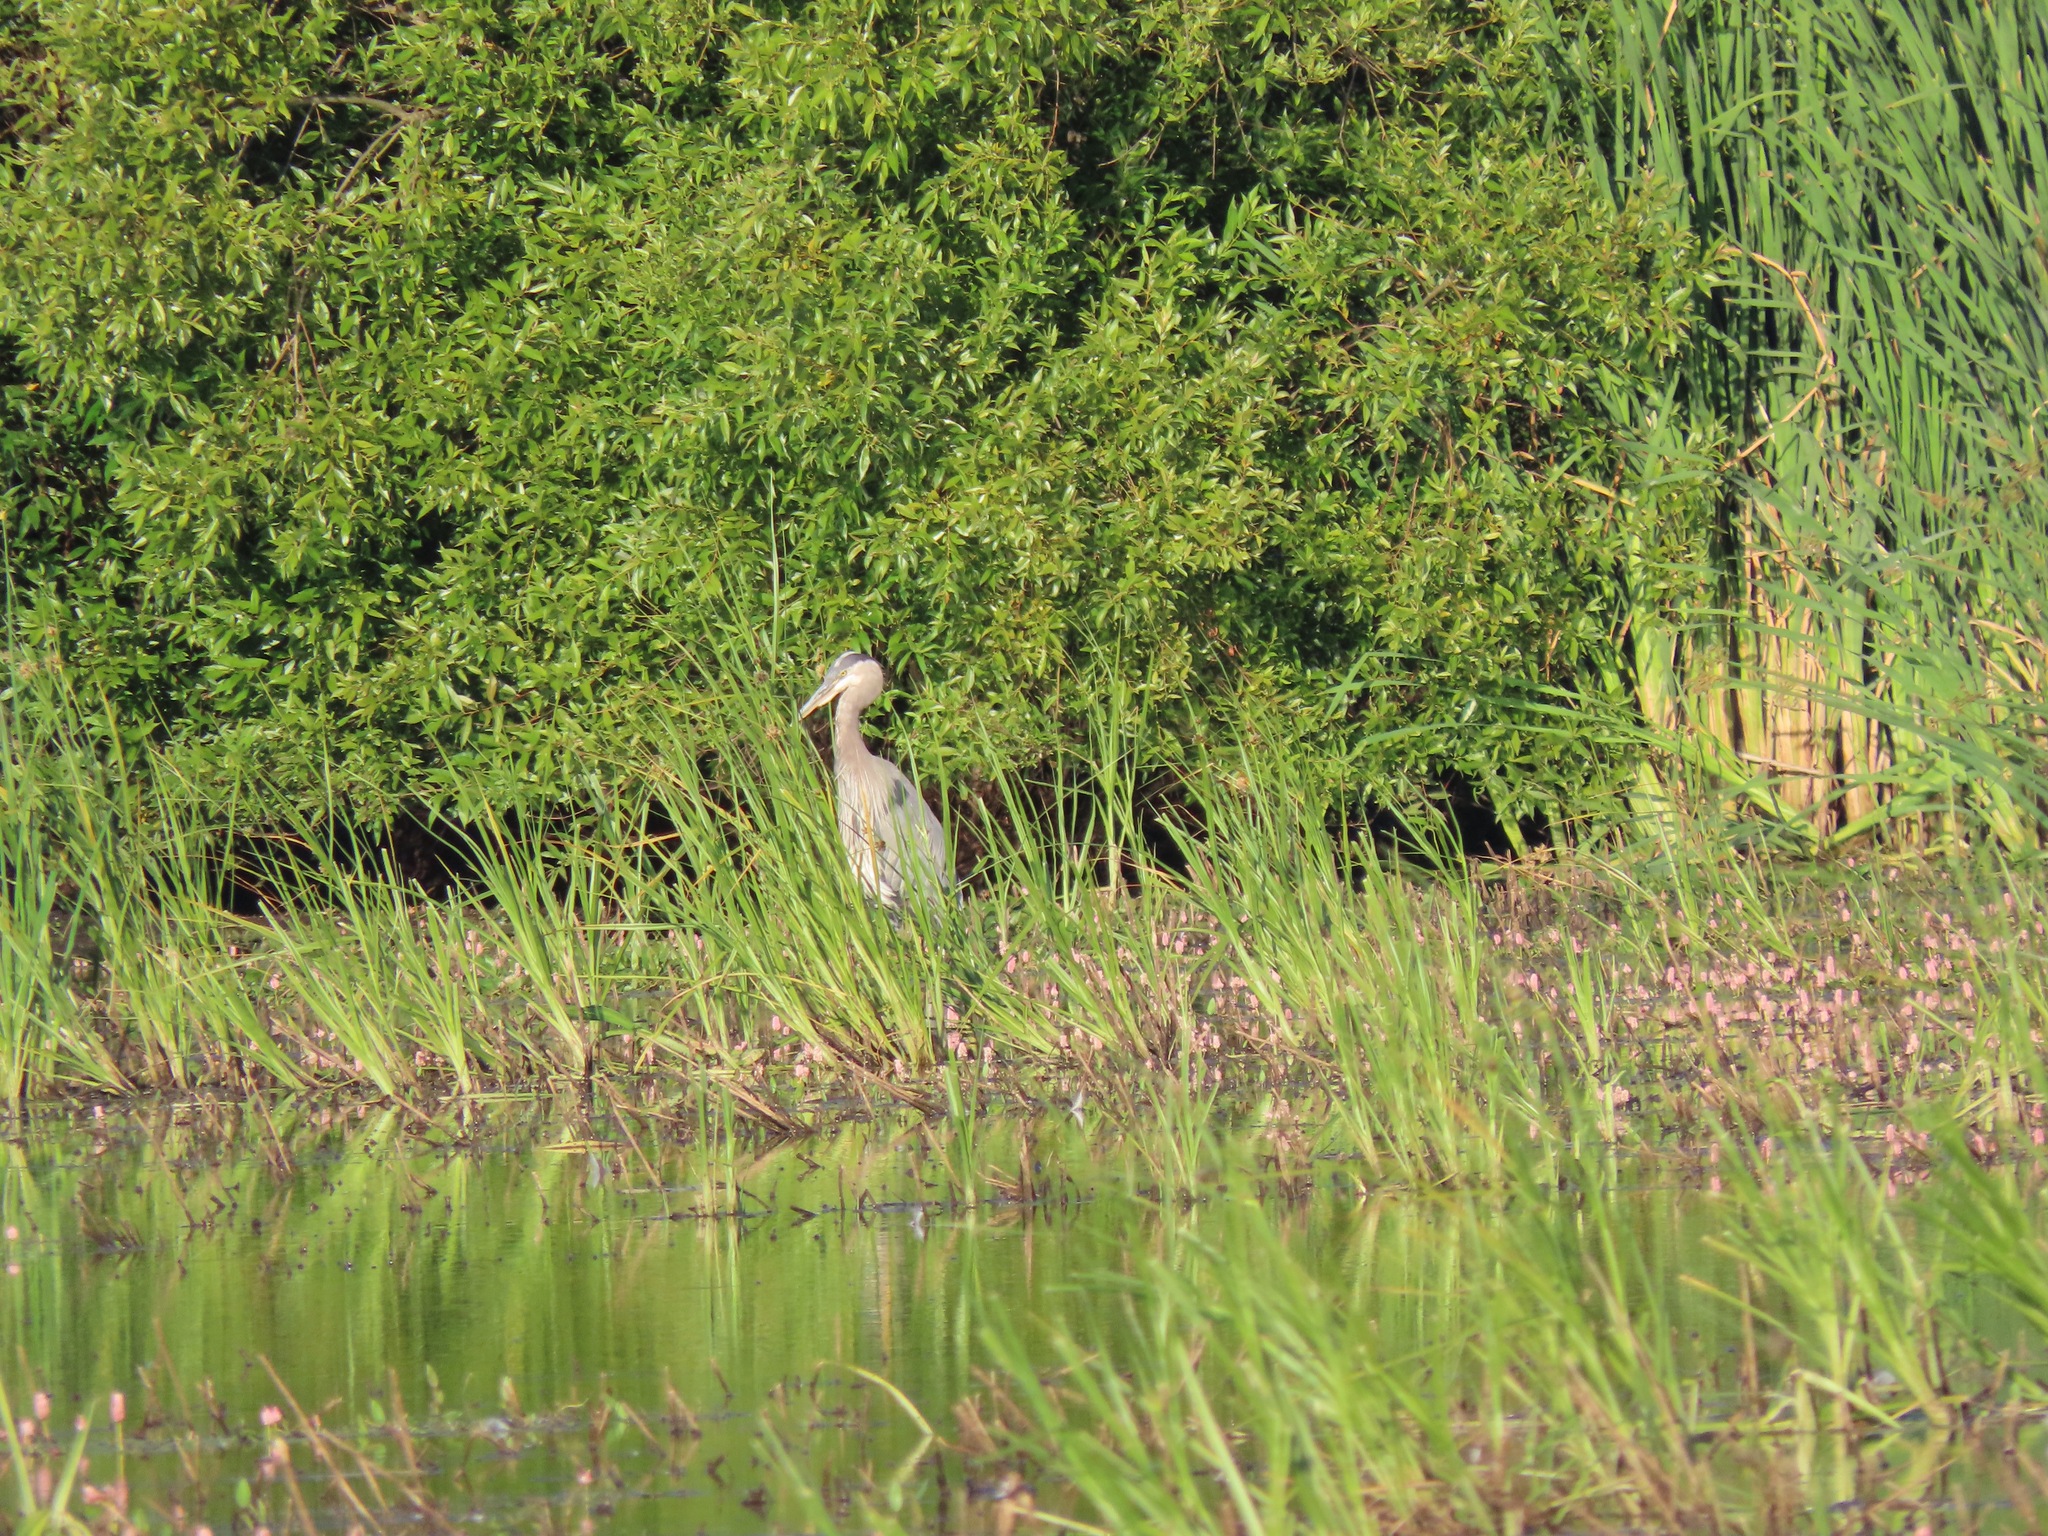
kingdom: Animalia
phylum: Chordata
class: Aves
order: Pelecaniformes
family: Ardeidae
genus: Ardea
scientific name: Ardea herodias
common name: Great blue heron
